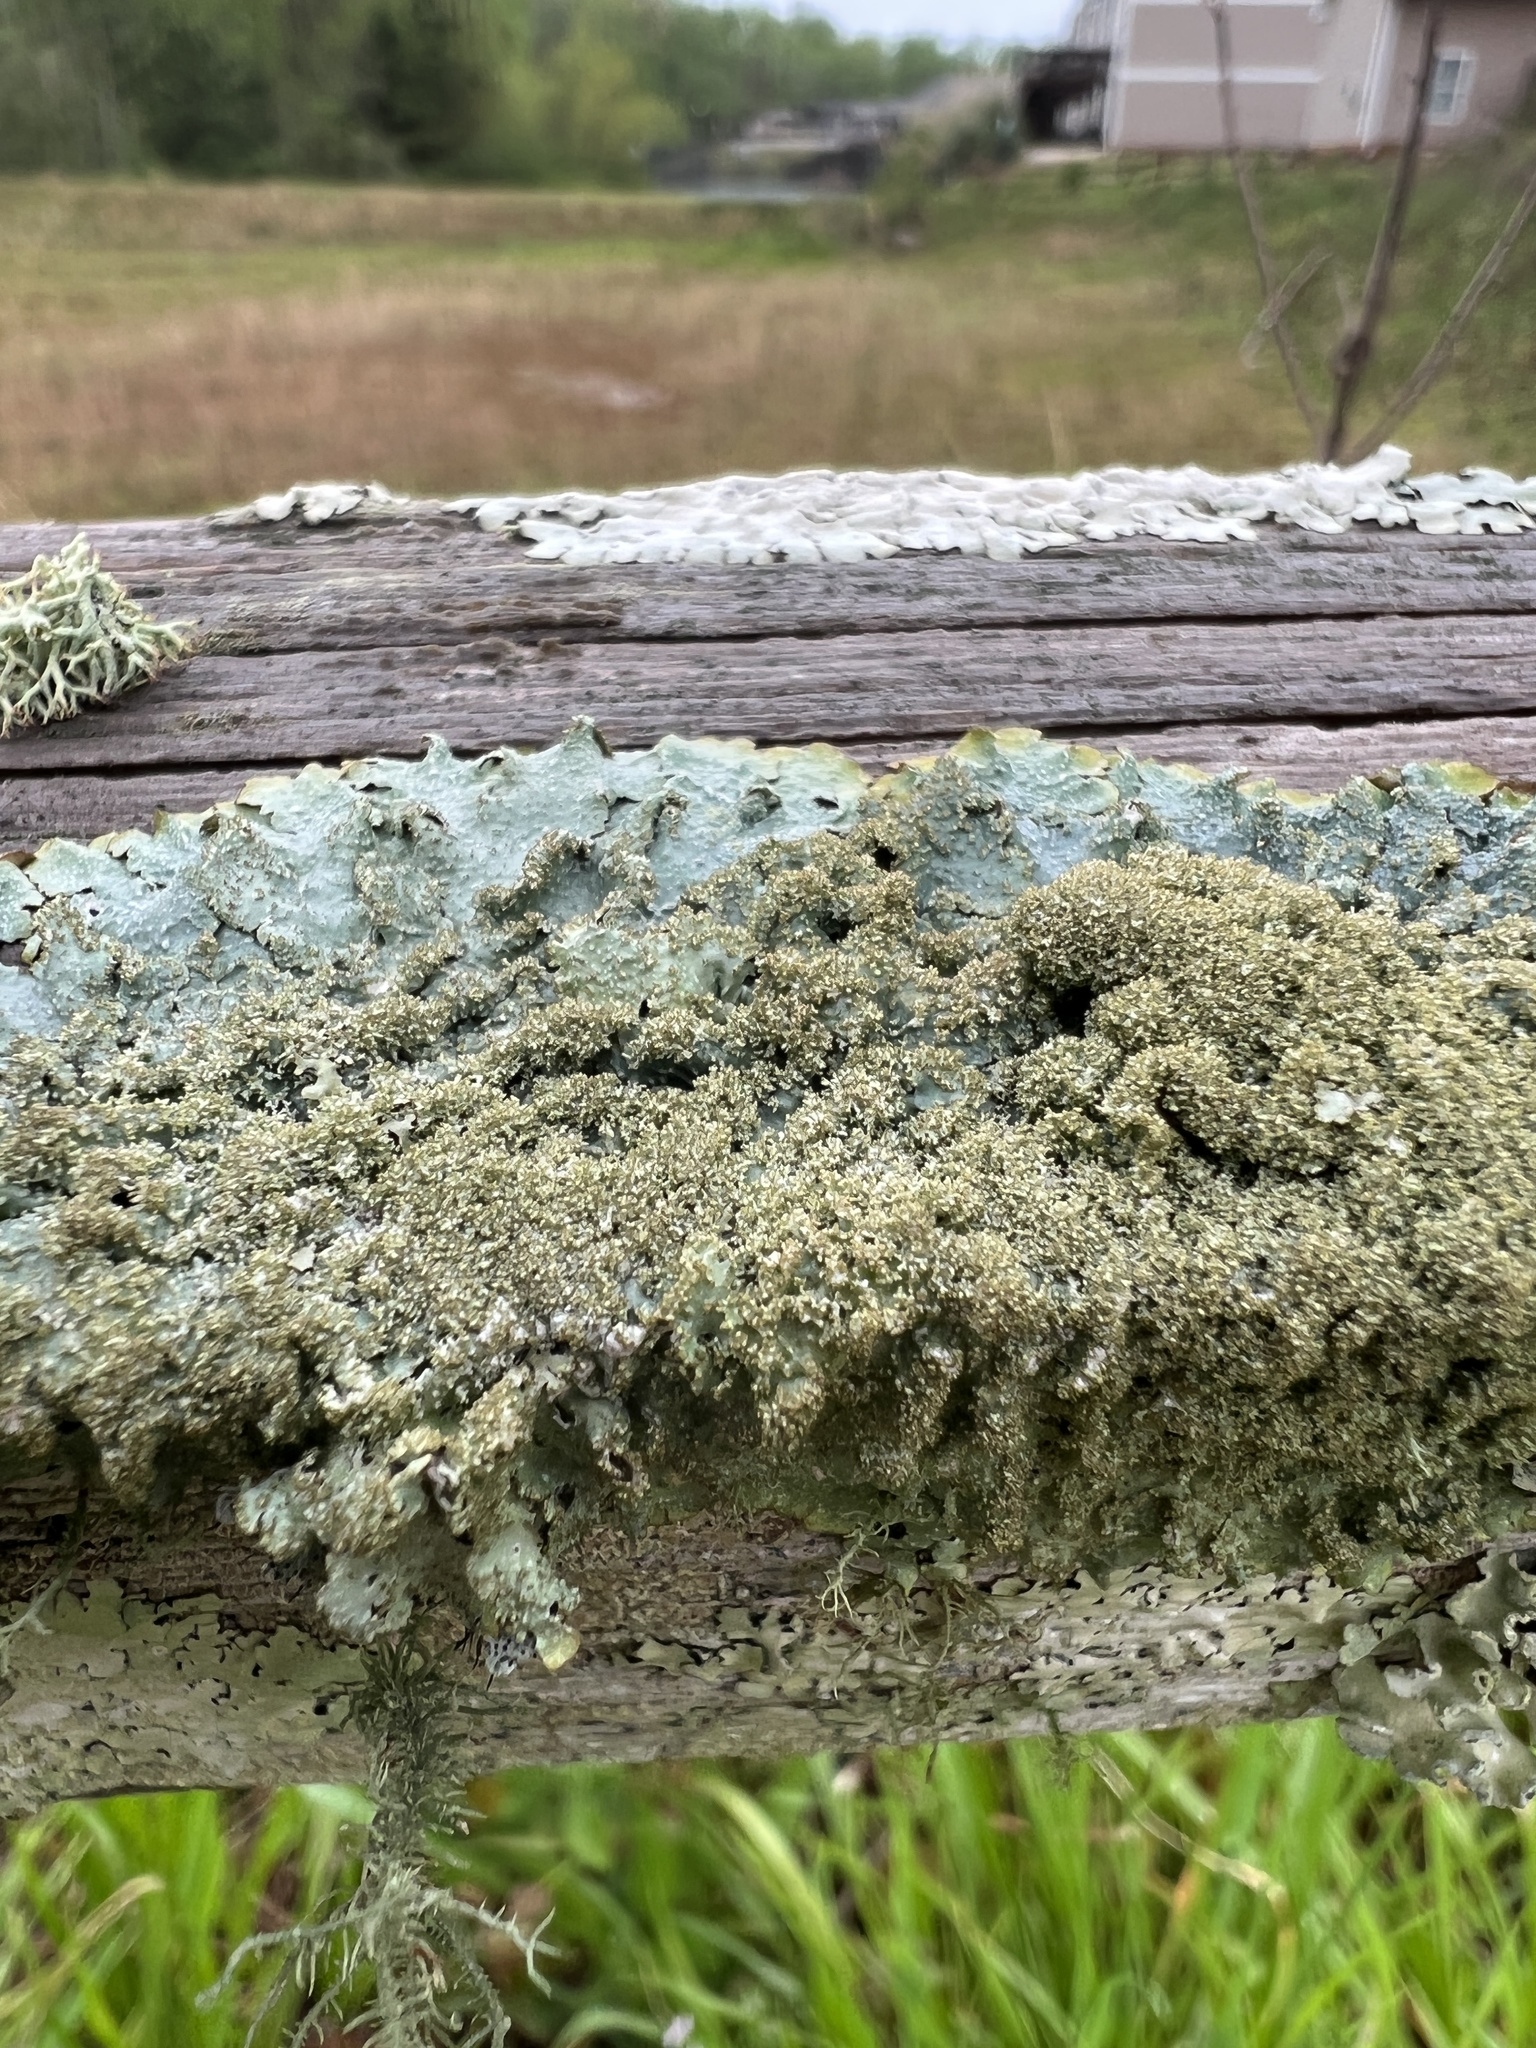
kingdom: Fungi
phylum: Ascomycota
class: Lecanoromycetes
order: Lecanorales
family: Parmeliaceae
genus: Punctelia
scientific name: Punctelia
